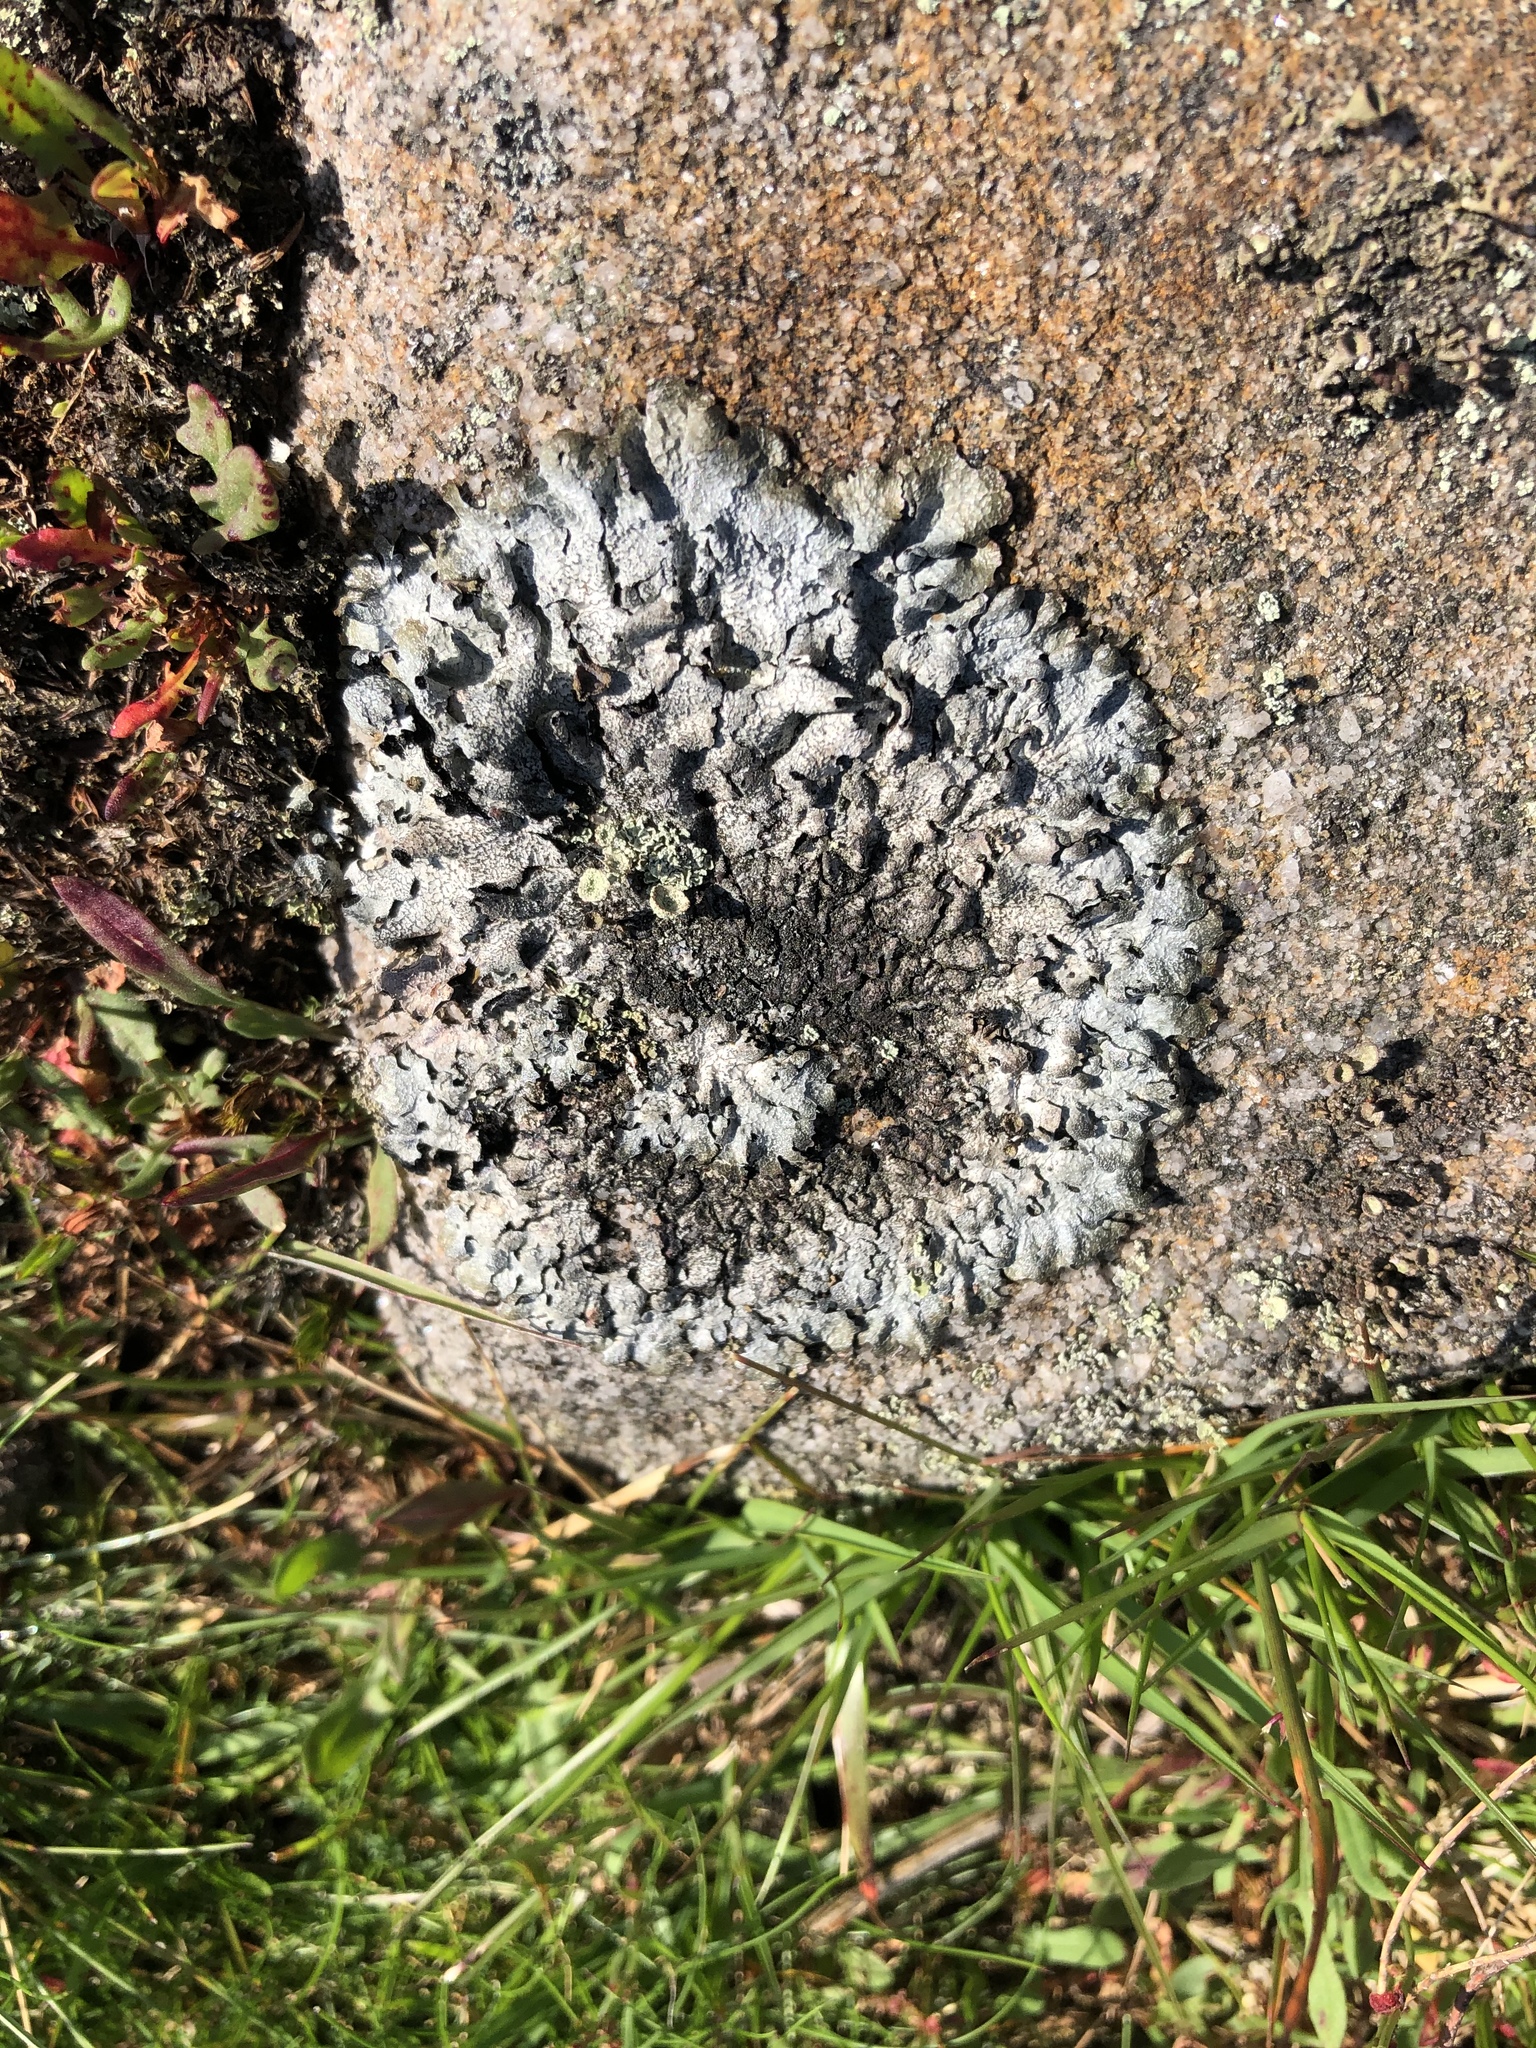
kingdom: Fungi
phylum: Ascomycota
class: Lecanoromycetes
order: Lecanorales
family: Parmeliaceae
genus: Parmelia
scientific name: Parmelia saxatilis
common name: Salted shield lichen
